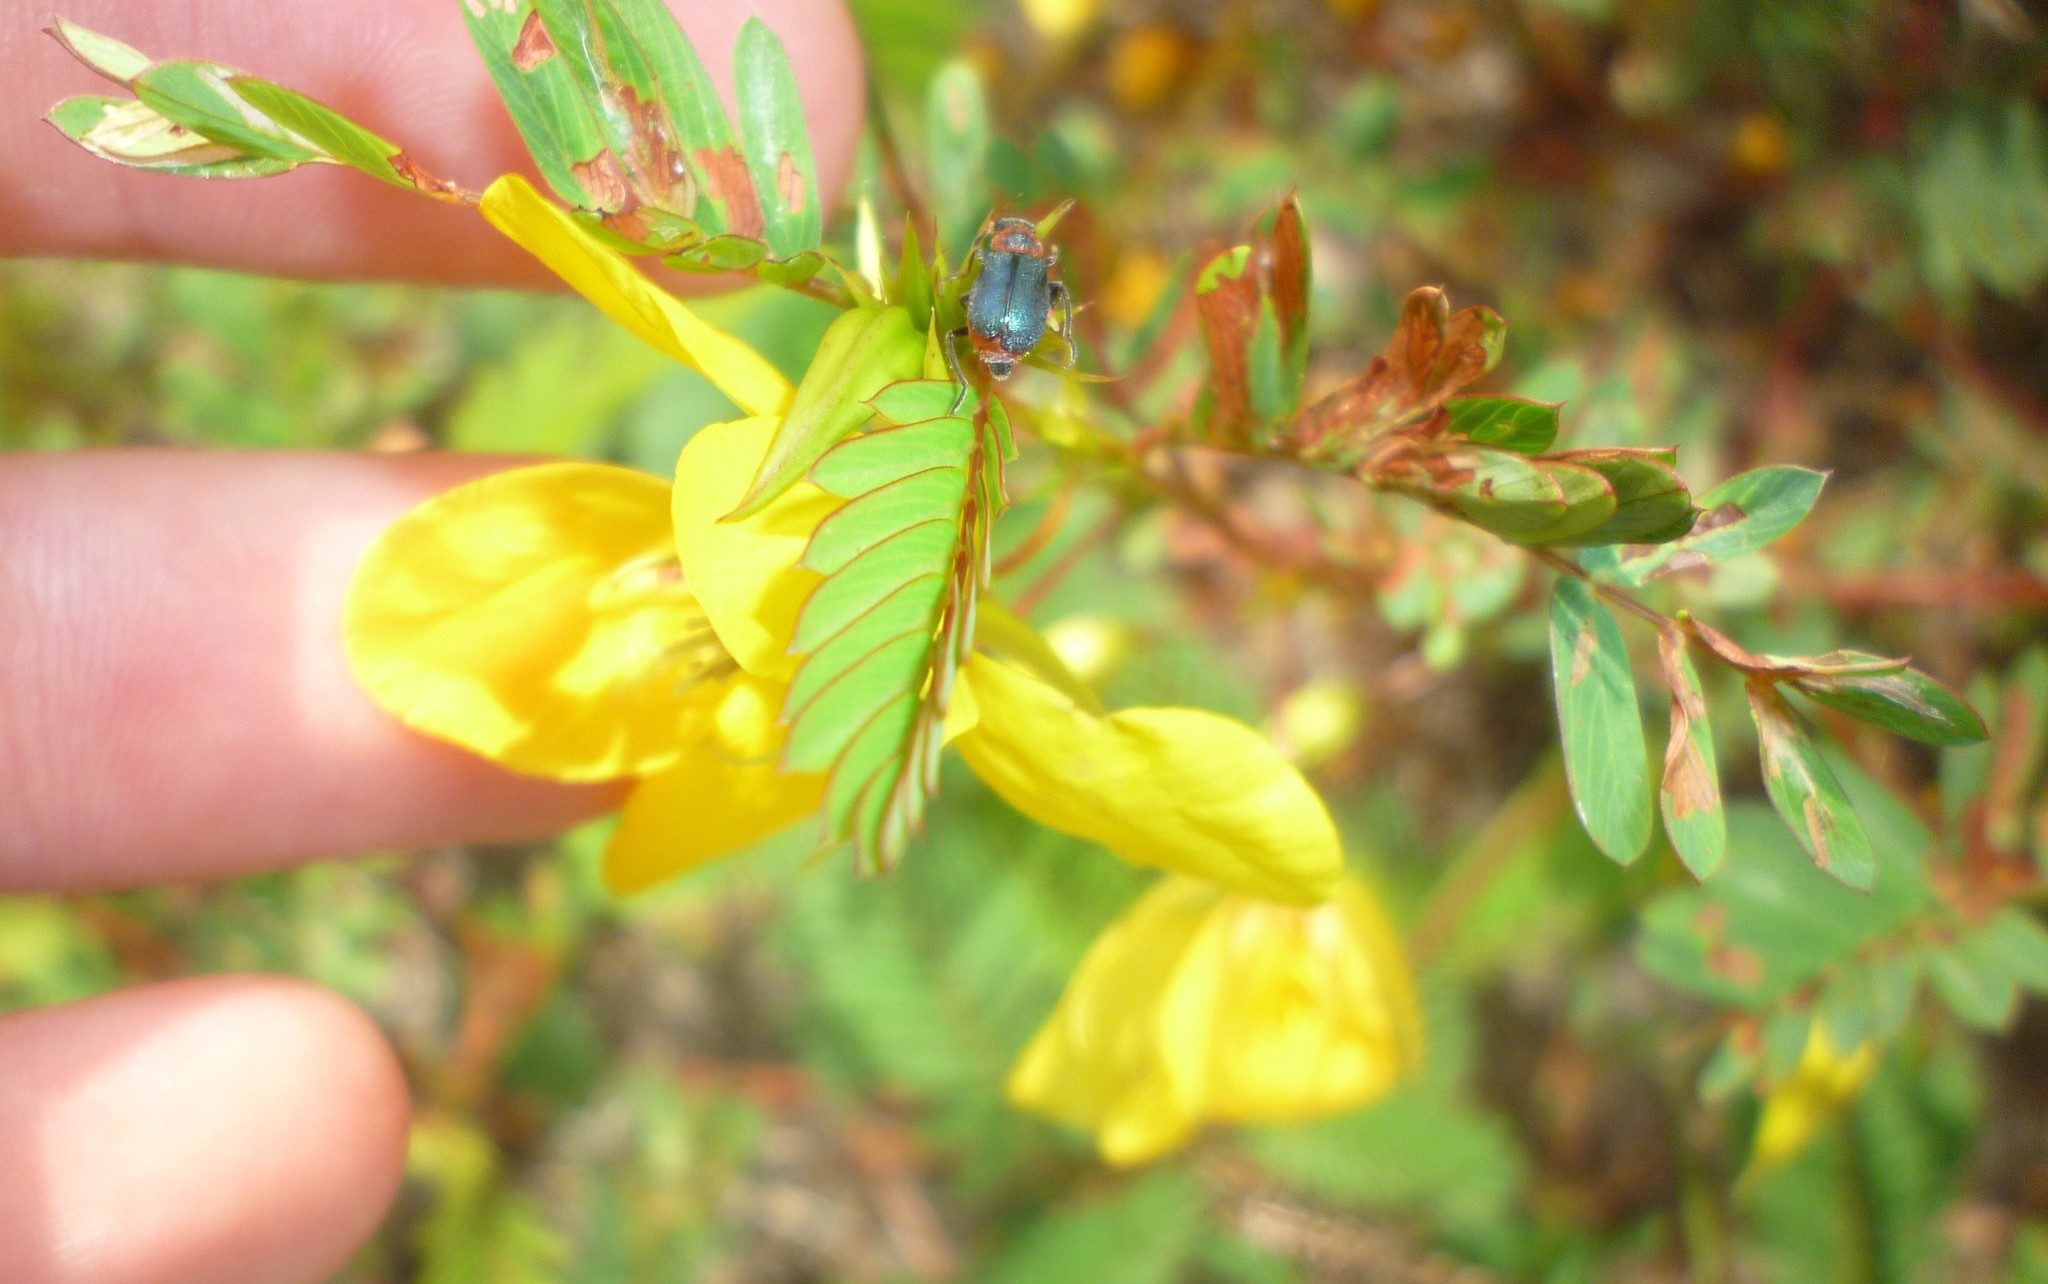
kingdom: Plantae
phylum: Tracheophyta
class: Magnoliopsida
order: Fabales
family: Fabaceae
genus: Chamaecrista
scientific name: Chamaecrista fasciculata
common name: Golden cassia
